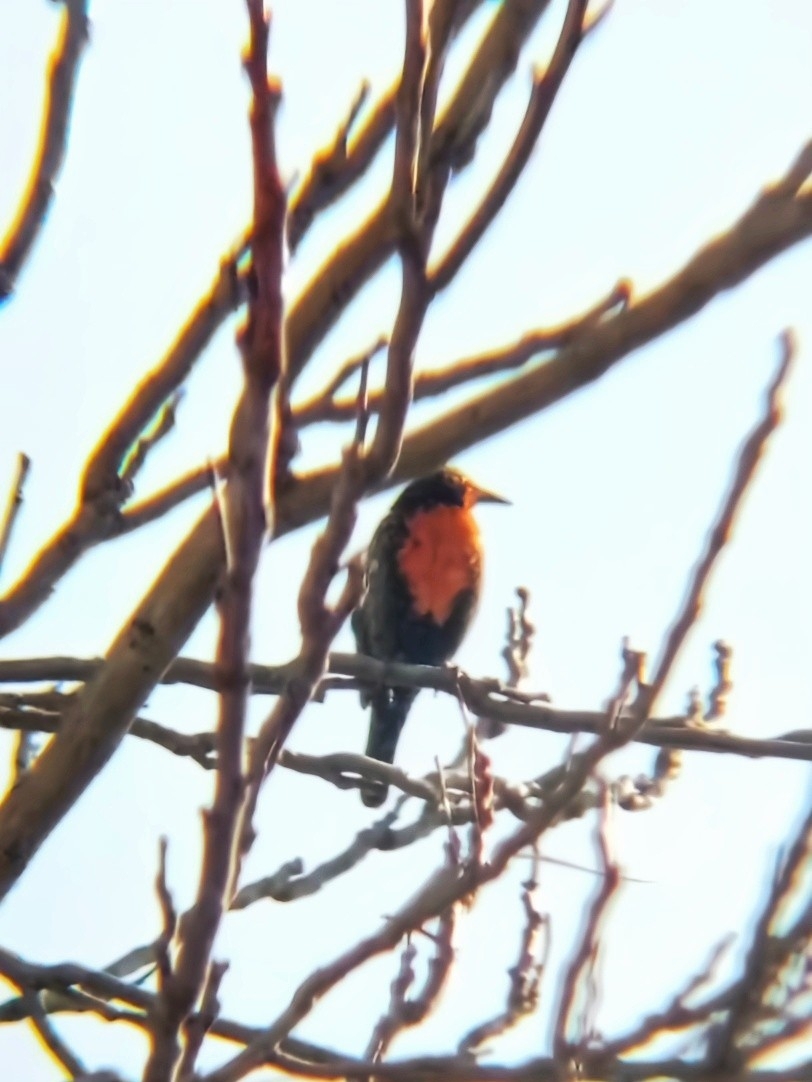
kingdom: Animalia
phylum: Chordata
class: Aves
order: Passeriformes
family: Icteridae
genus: Sturnella
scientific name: Sturnella loyca
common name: Long-tailed meadowlark
